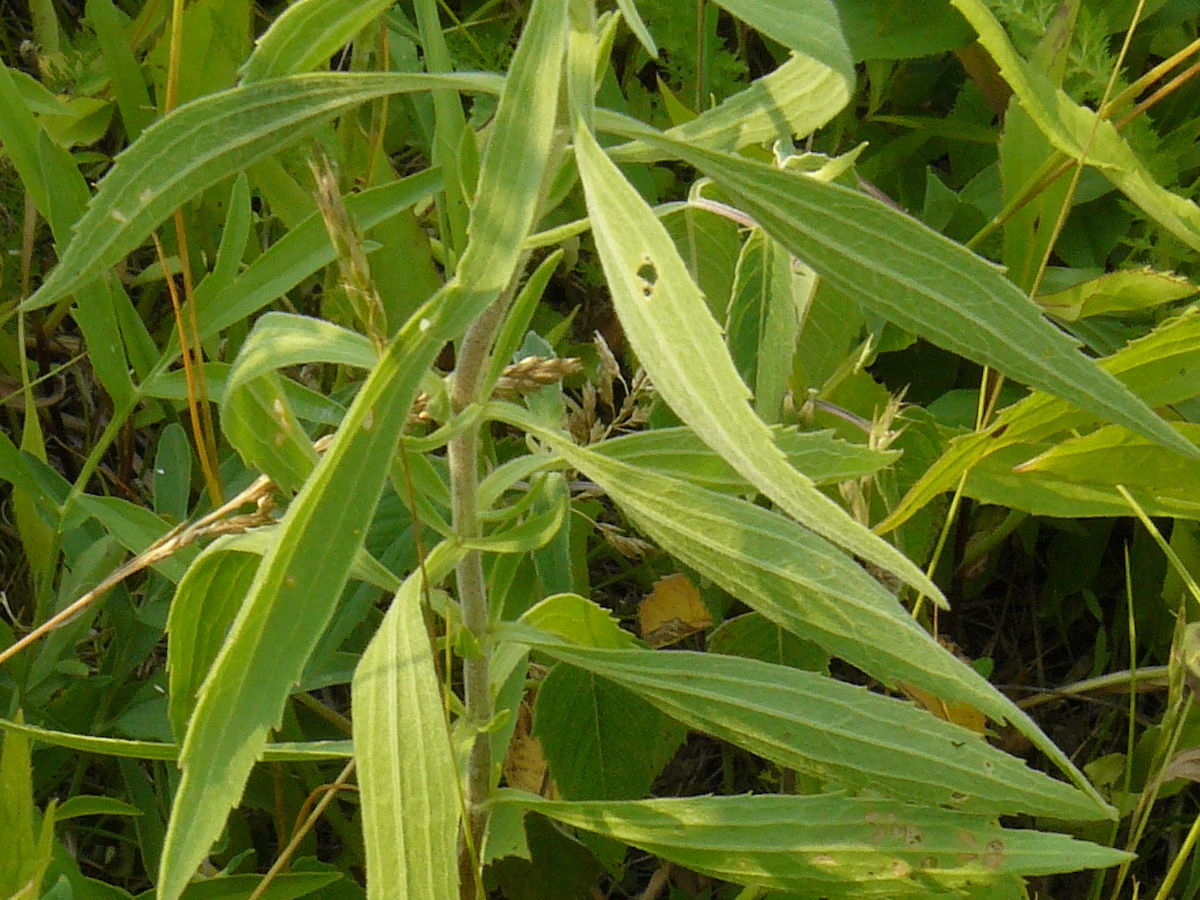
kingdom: Plantae
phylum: Tracheophyta
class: Magnoliopsida
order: Asterales
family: Asteraceae
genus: Eupatorium
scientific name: Eupatorium altissimum
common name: Tall thoroughwort
